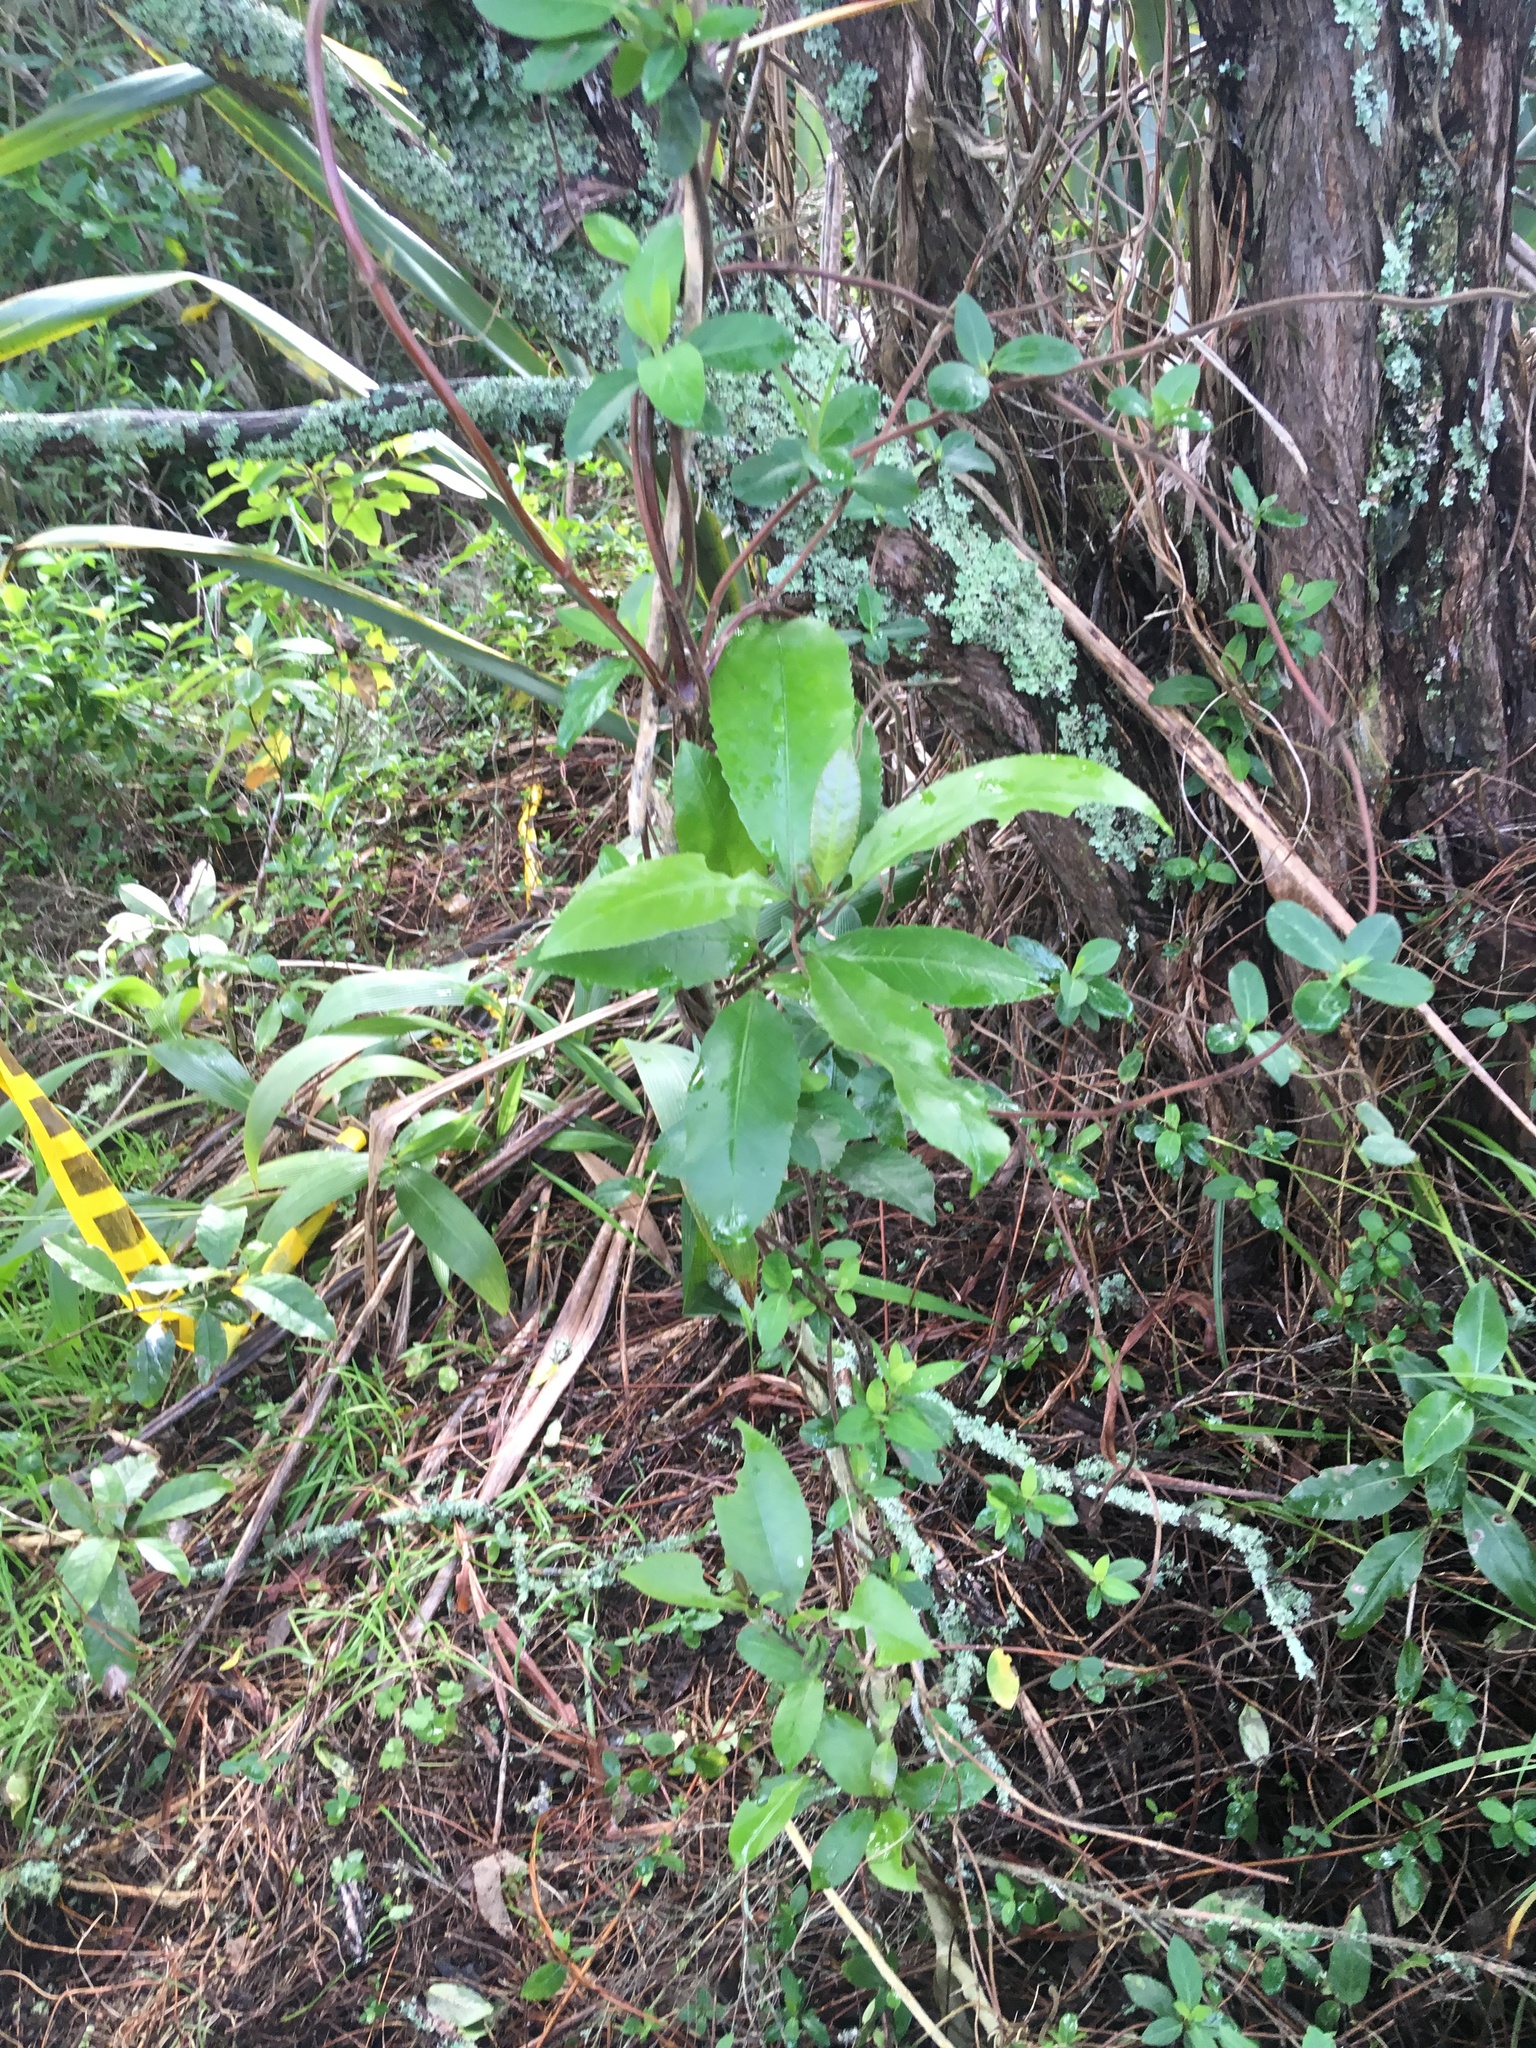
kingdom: Plantae
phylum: Tracheophyta
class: Magnoliopsida
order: Malpighiales
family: Violaceae
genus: Melicytus
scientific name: Melicytus ramiflorus
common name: Mahoe
